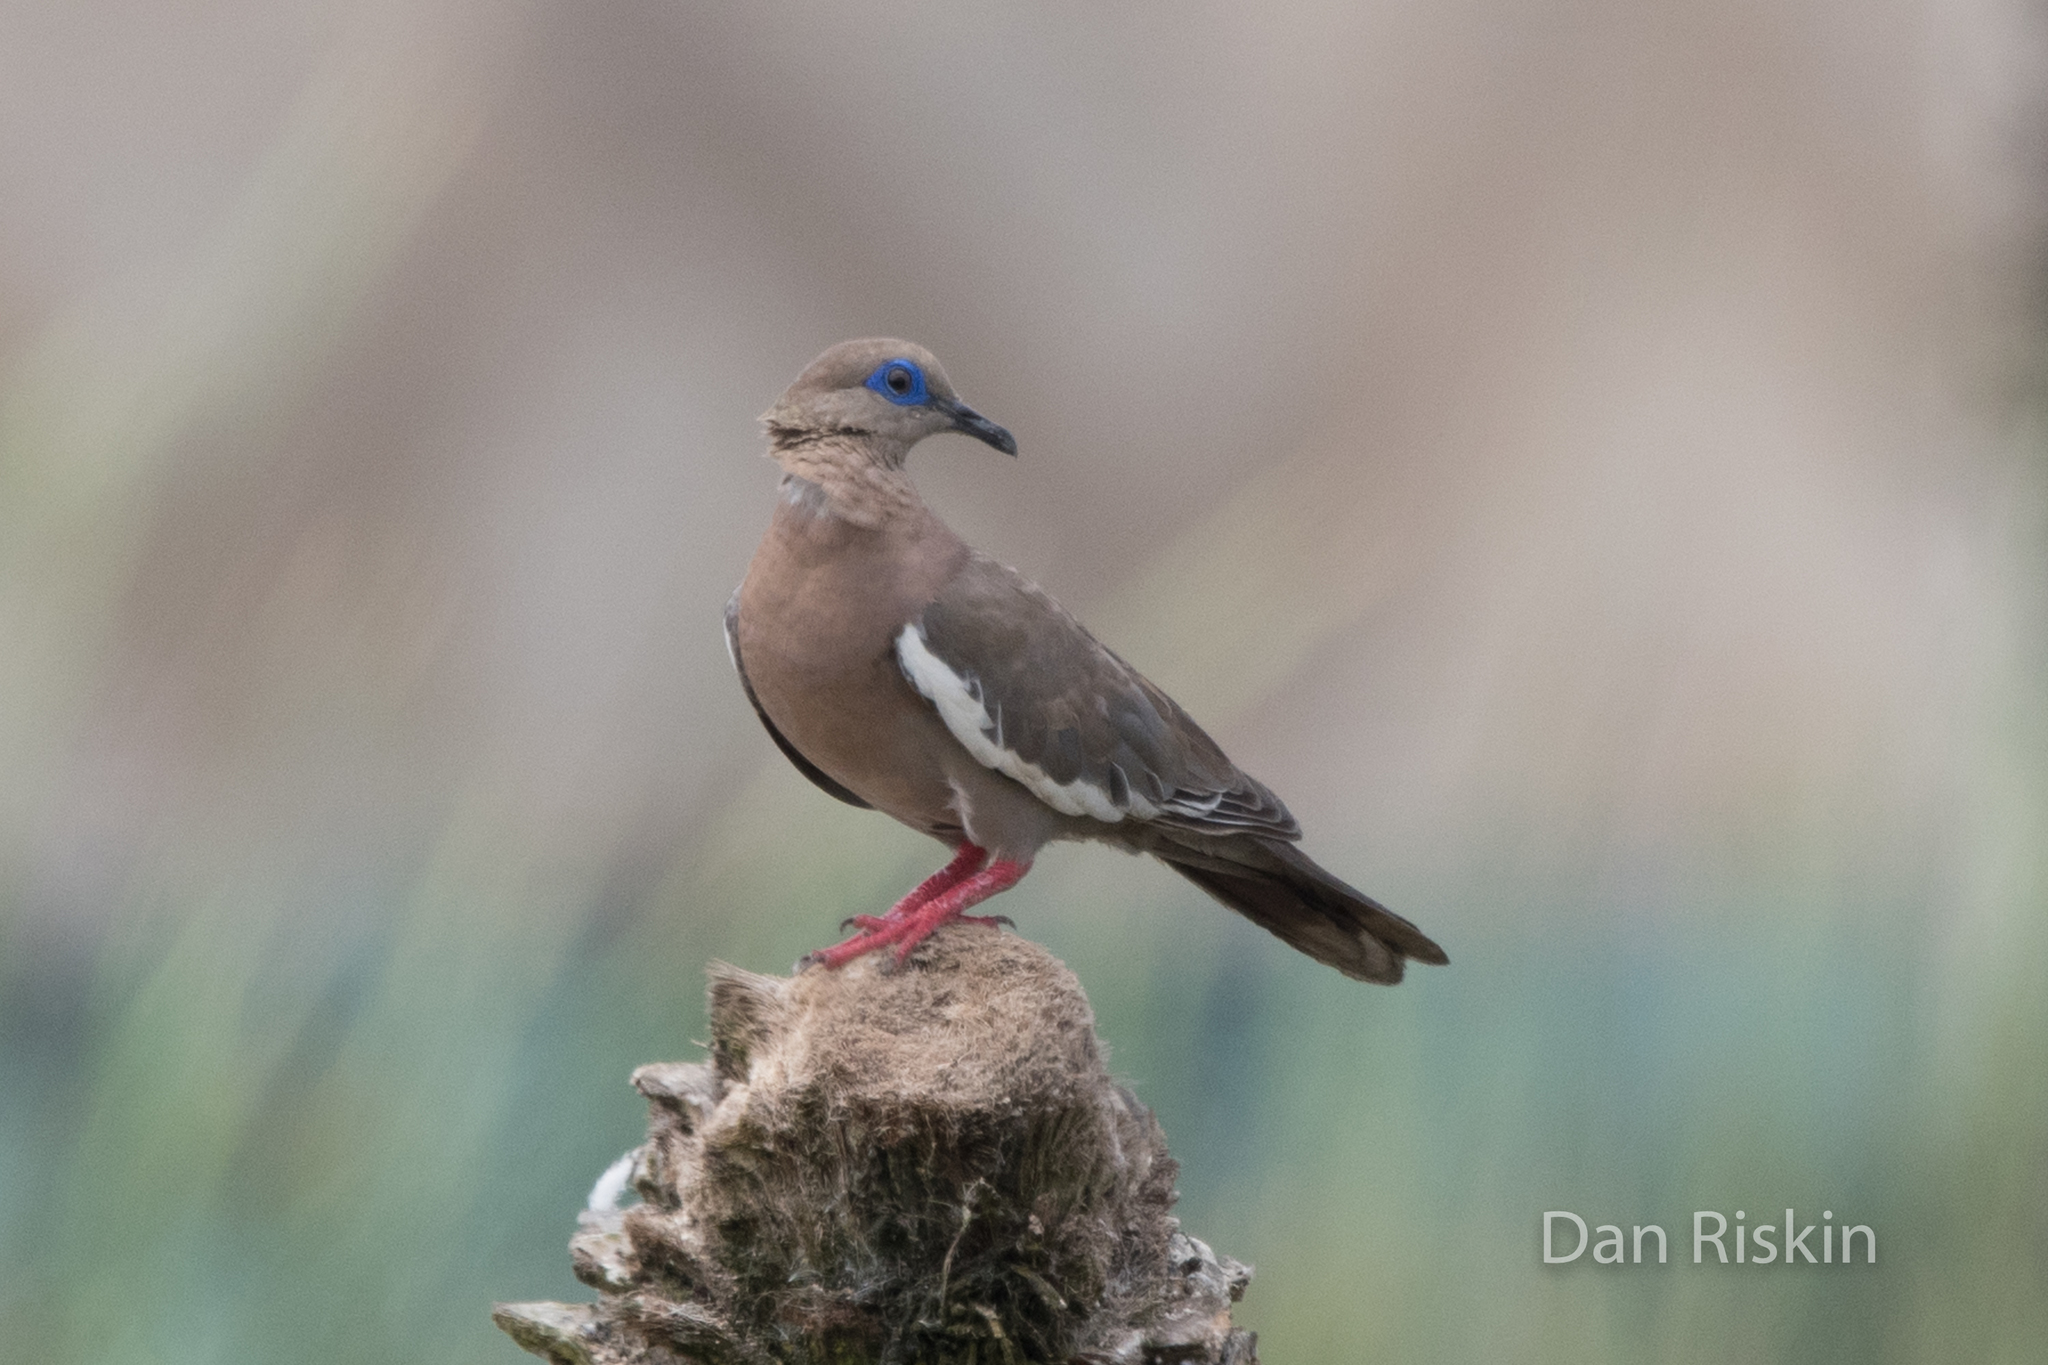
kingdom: Animalia
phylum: Chordata
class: Aves
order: Columbiformes
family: Columbidae
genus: Zenaida
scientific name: Zenaida meloda
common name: West peruvian dove
